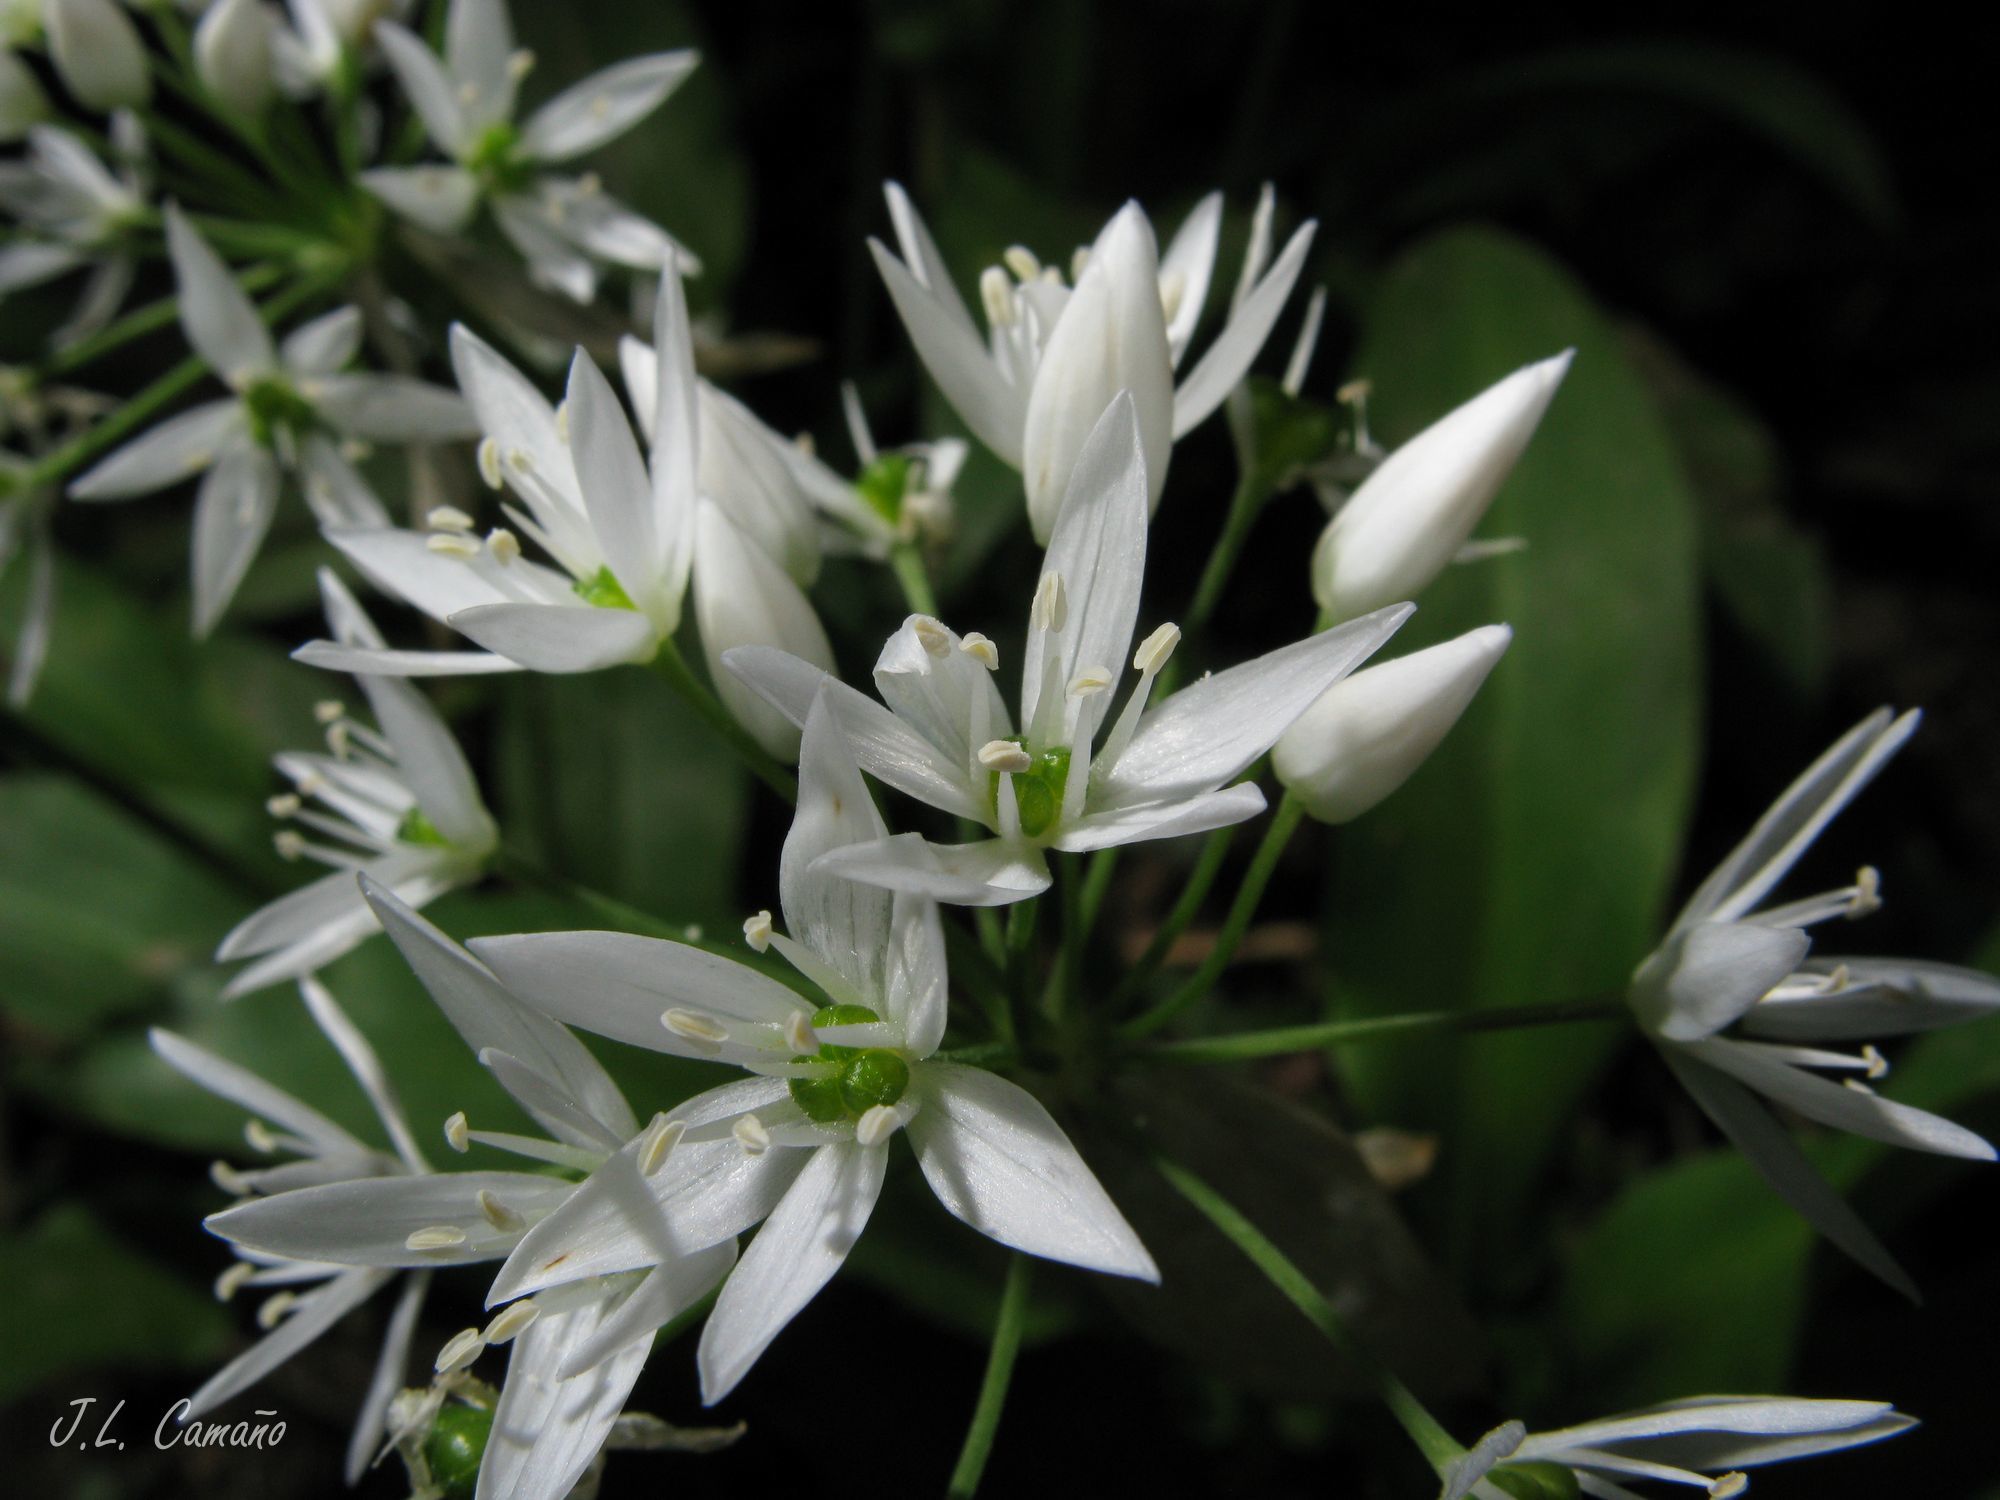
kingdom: Plantae
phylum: Tracheophyta
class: Liliopsida
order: Asparagales
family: Amaryllidaceae
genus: Allium
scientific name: Allium ursinum
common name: Ramsons
